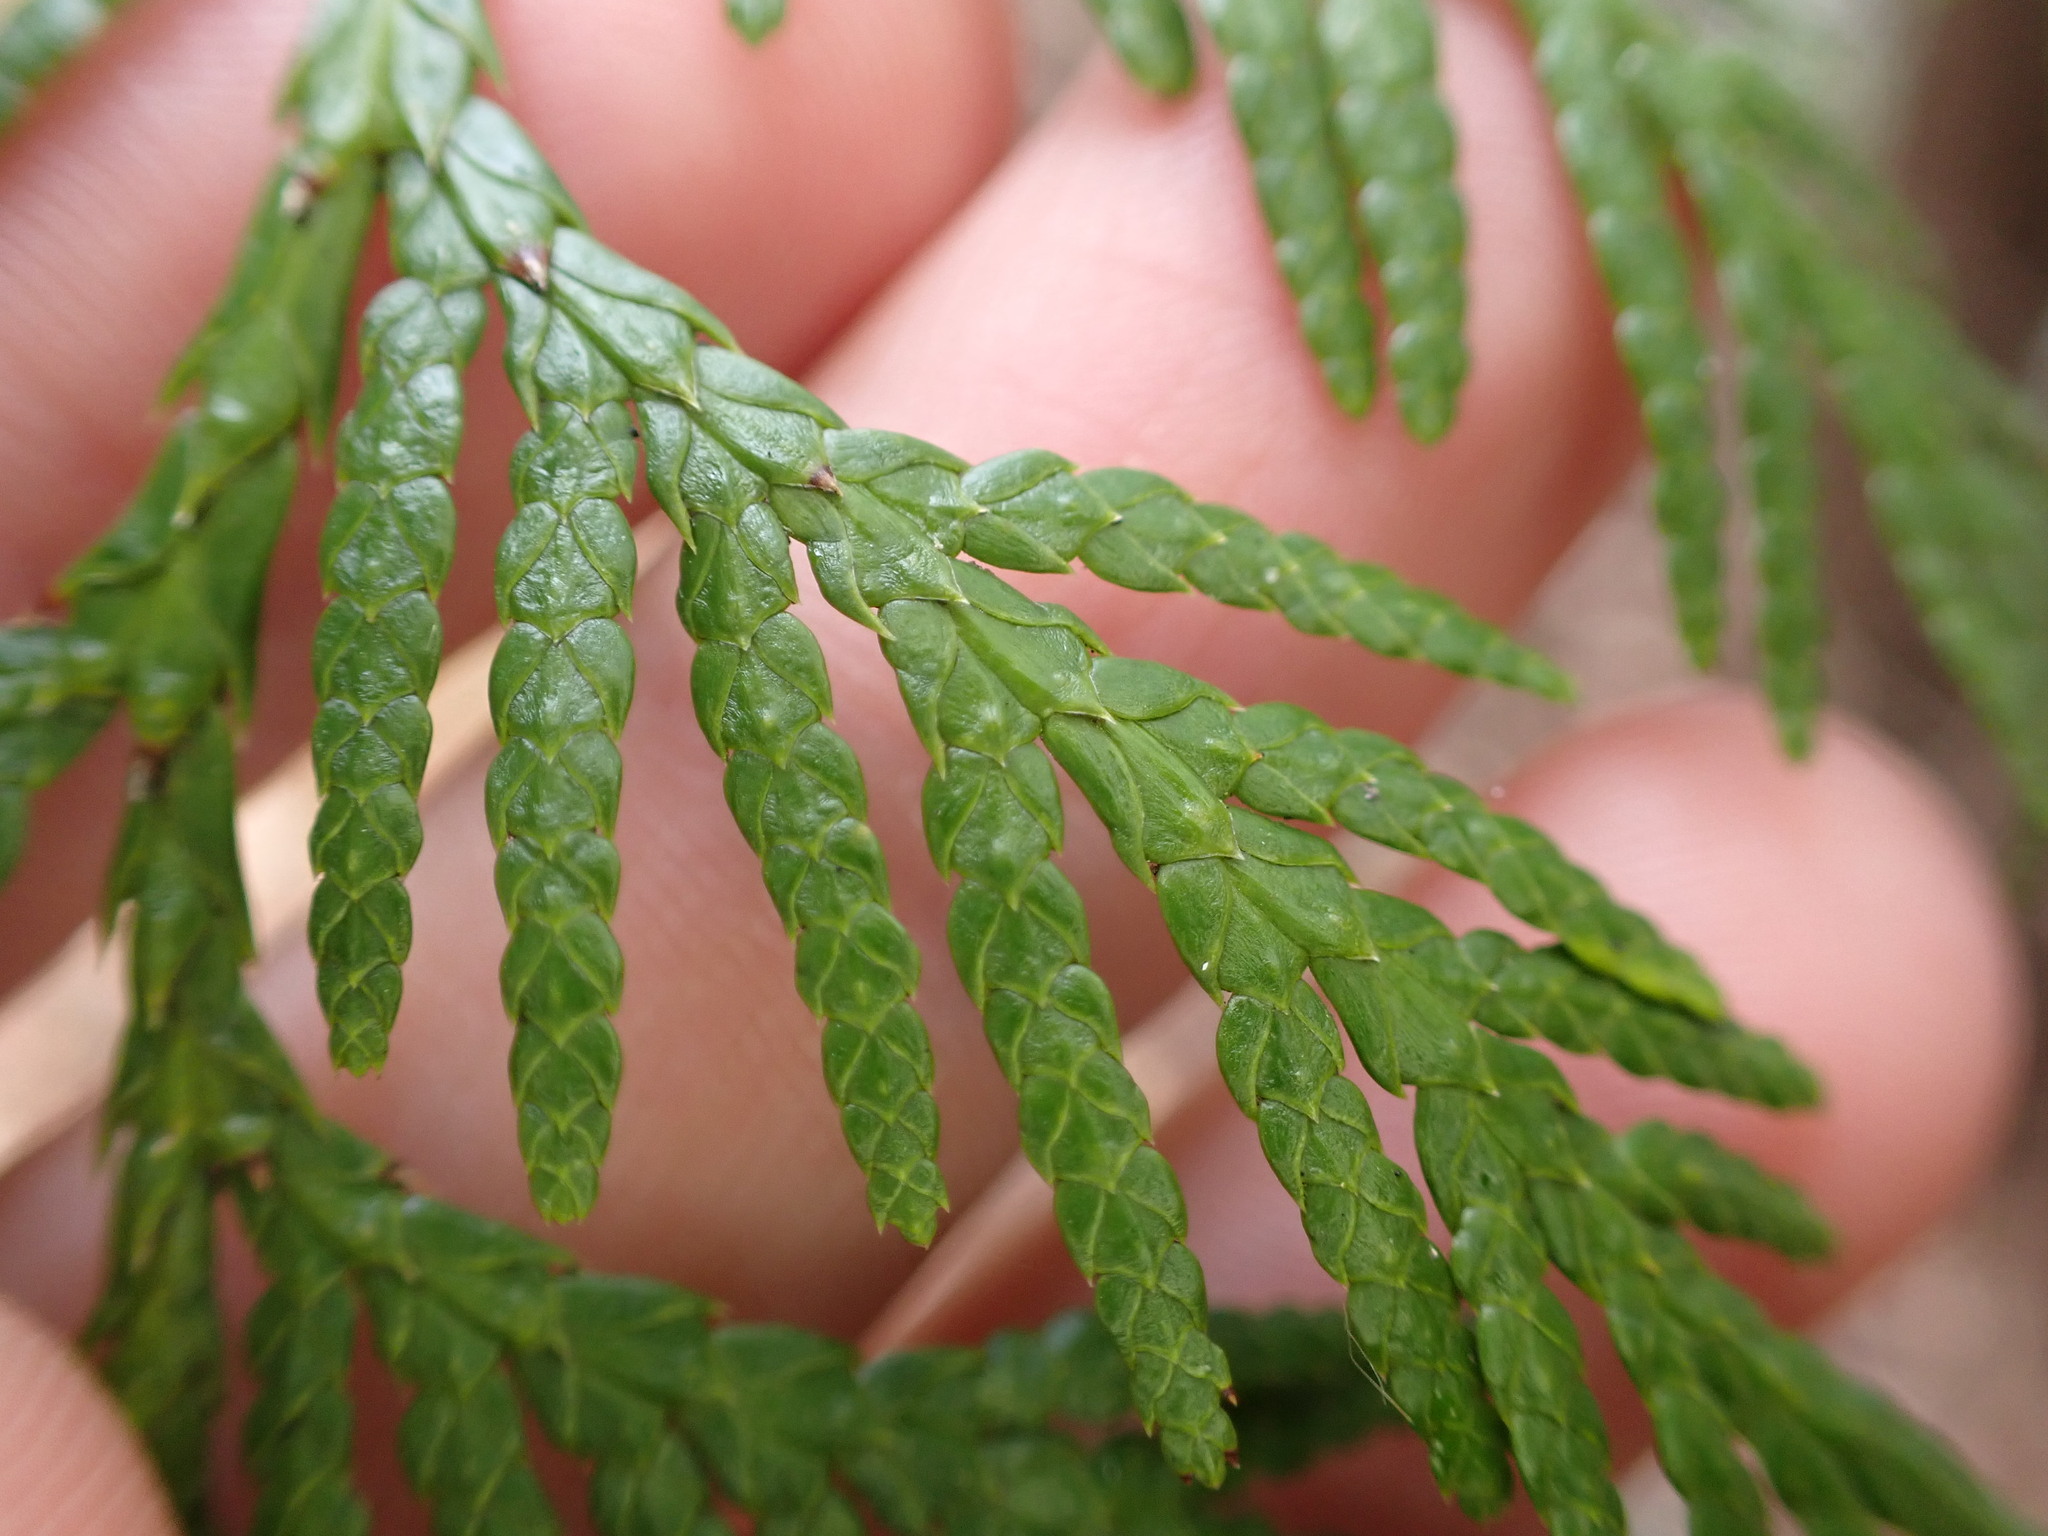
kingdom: Plantae
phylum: Tracheophyta
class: Pinopsida
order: Pinales
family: Cupressaceae
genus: Thuja
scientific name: Thuja plicata
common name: Western red-cedar
